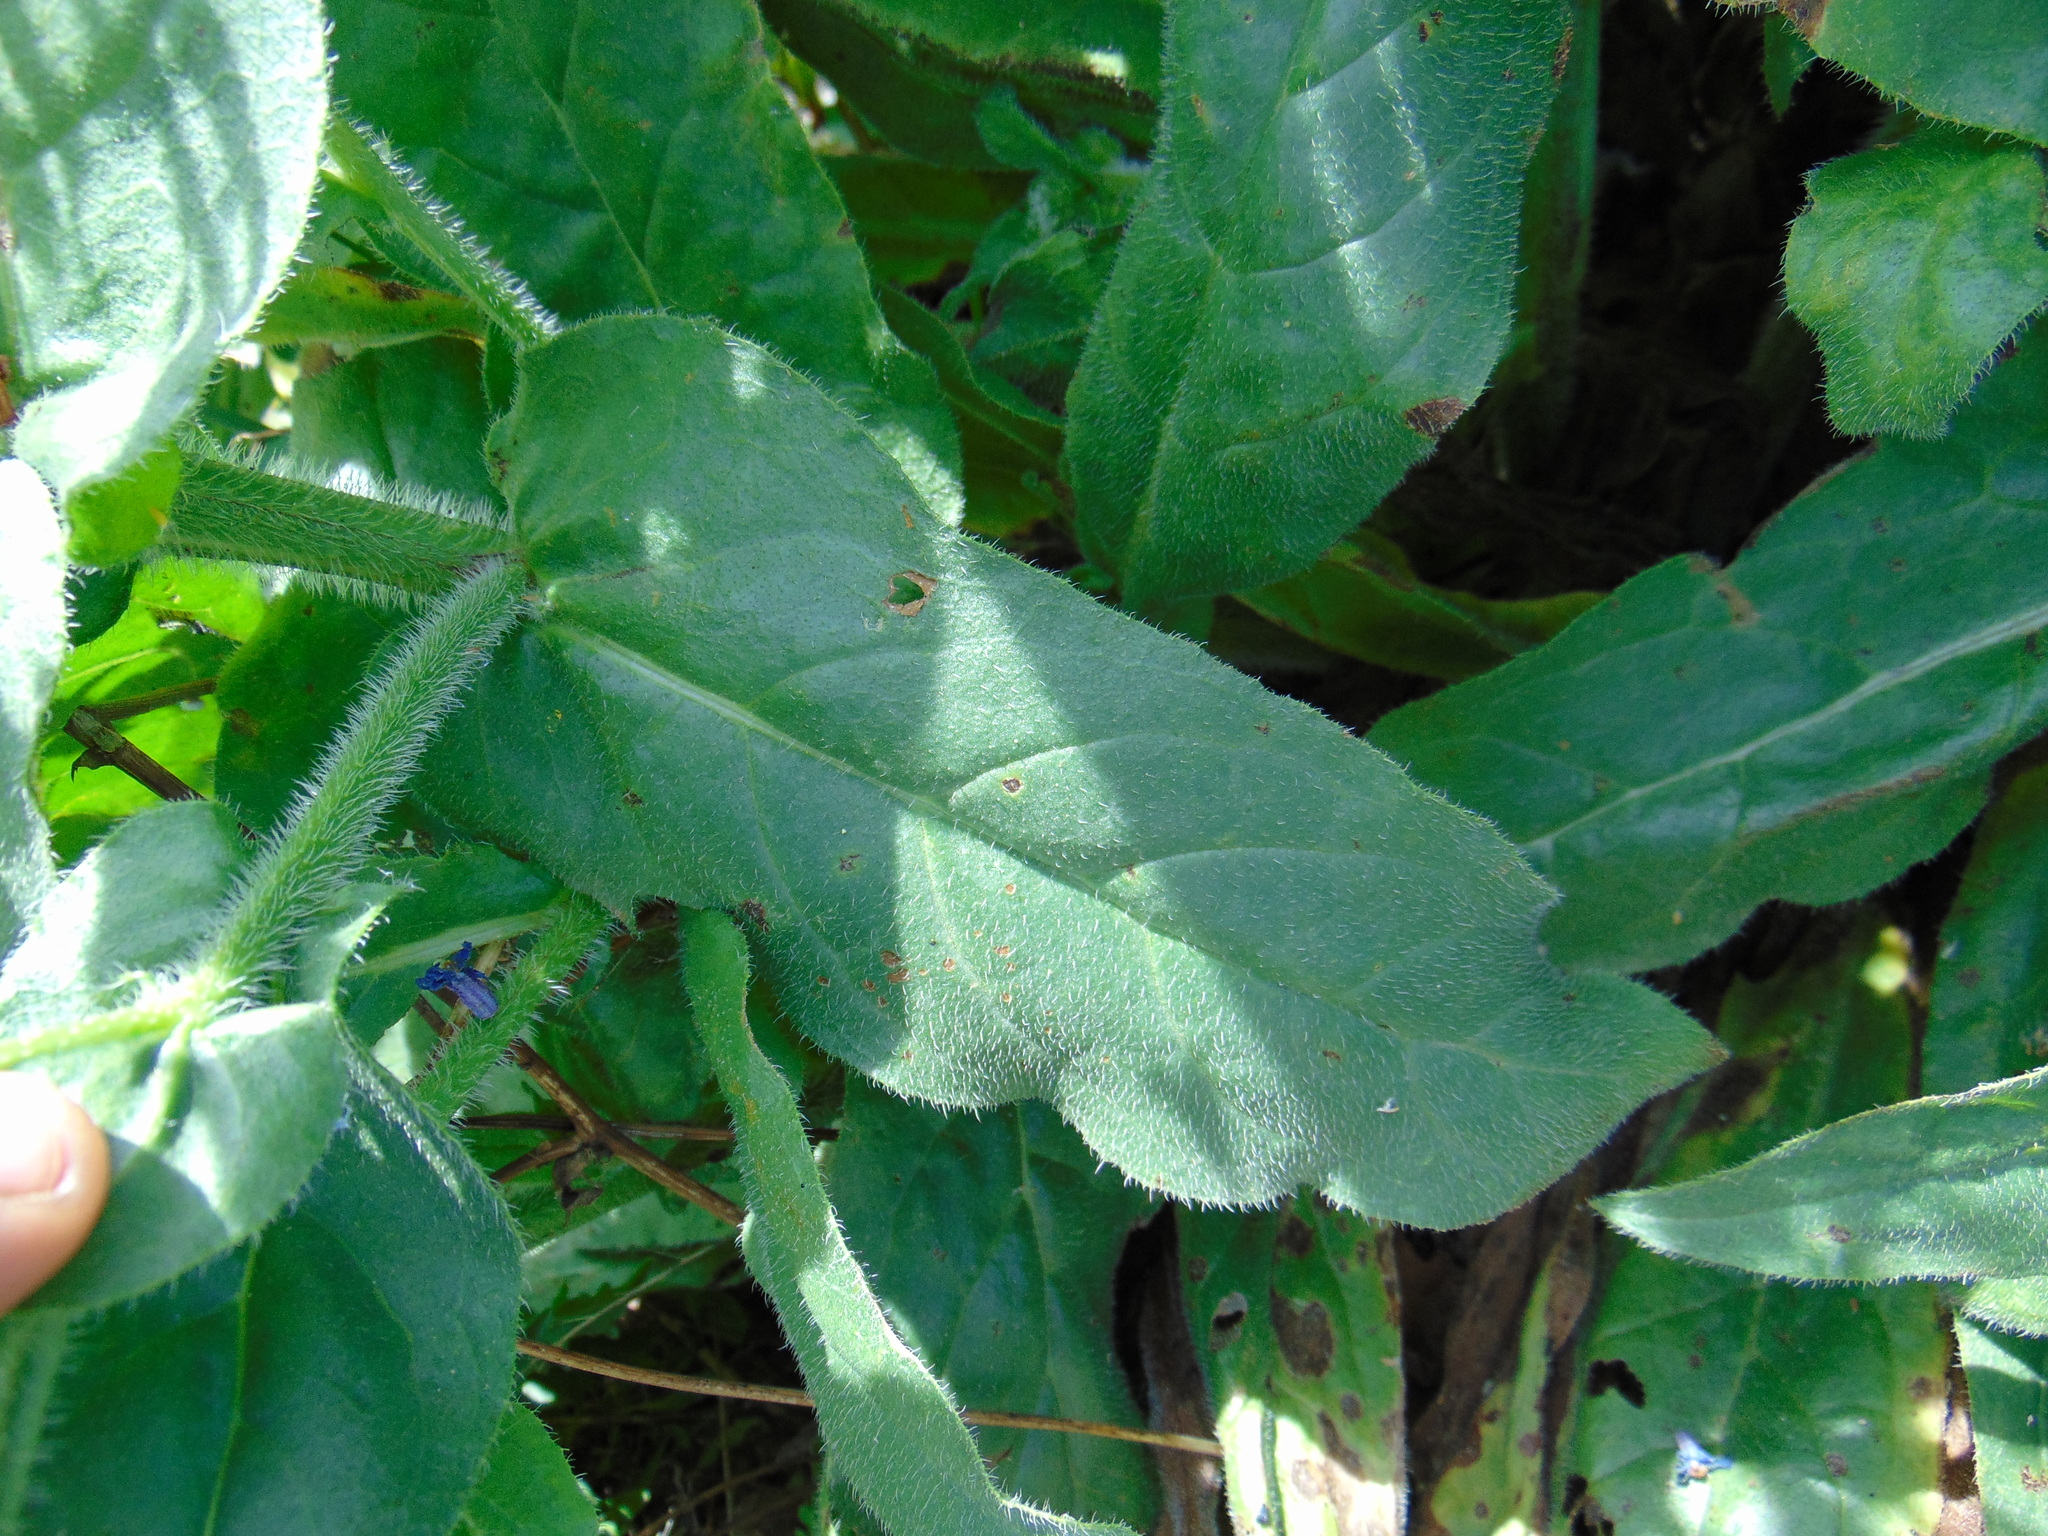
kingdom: Plantae
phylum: Tracheophyta
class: Magnoliopsida
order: Boraginales
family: Boraginaceae
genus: Anchusa
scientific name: Anchusa azurea
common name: Garden anchusa
